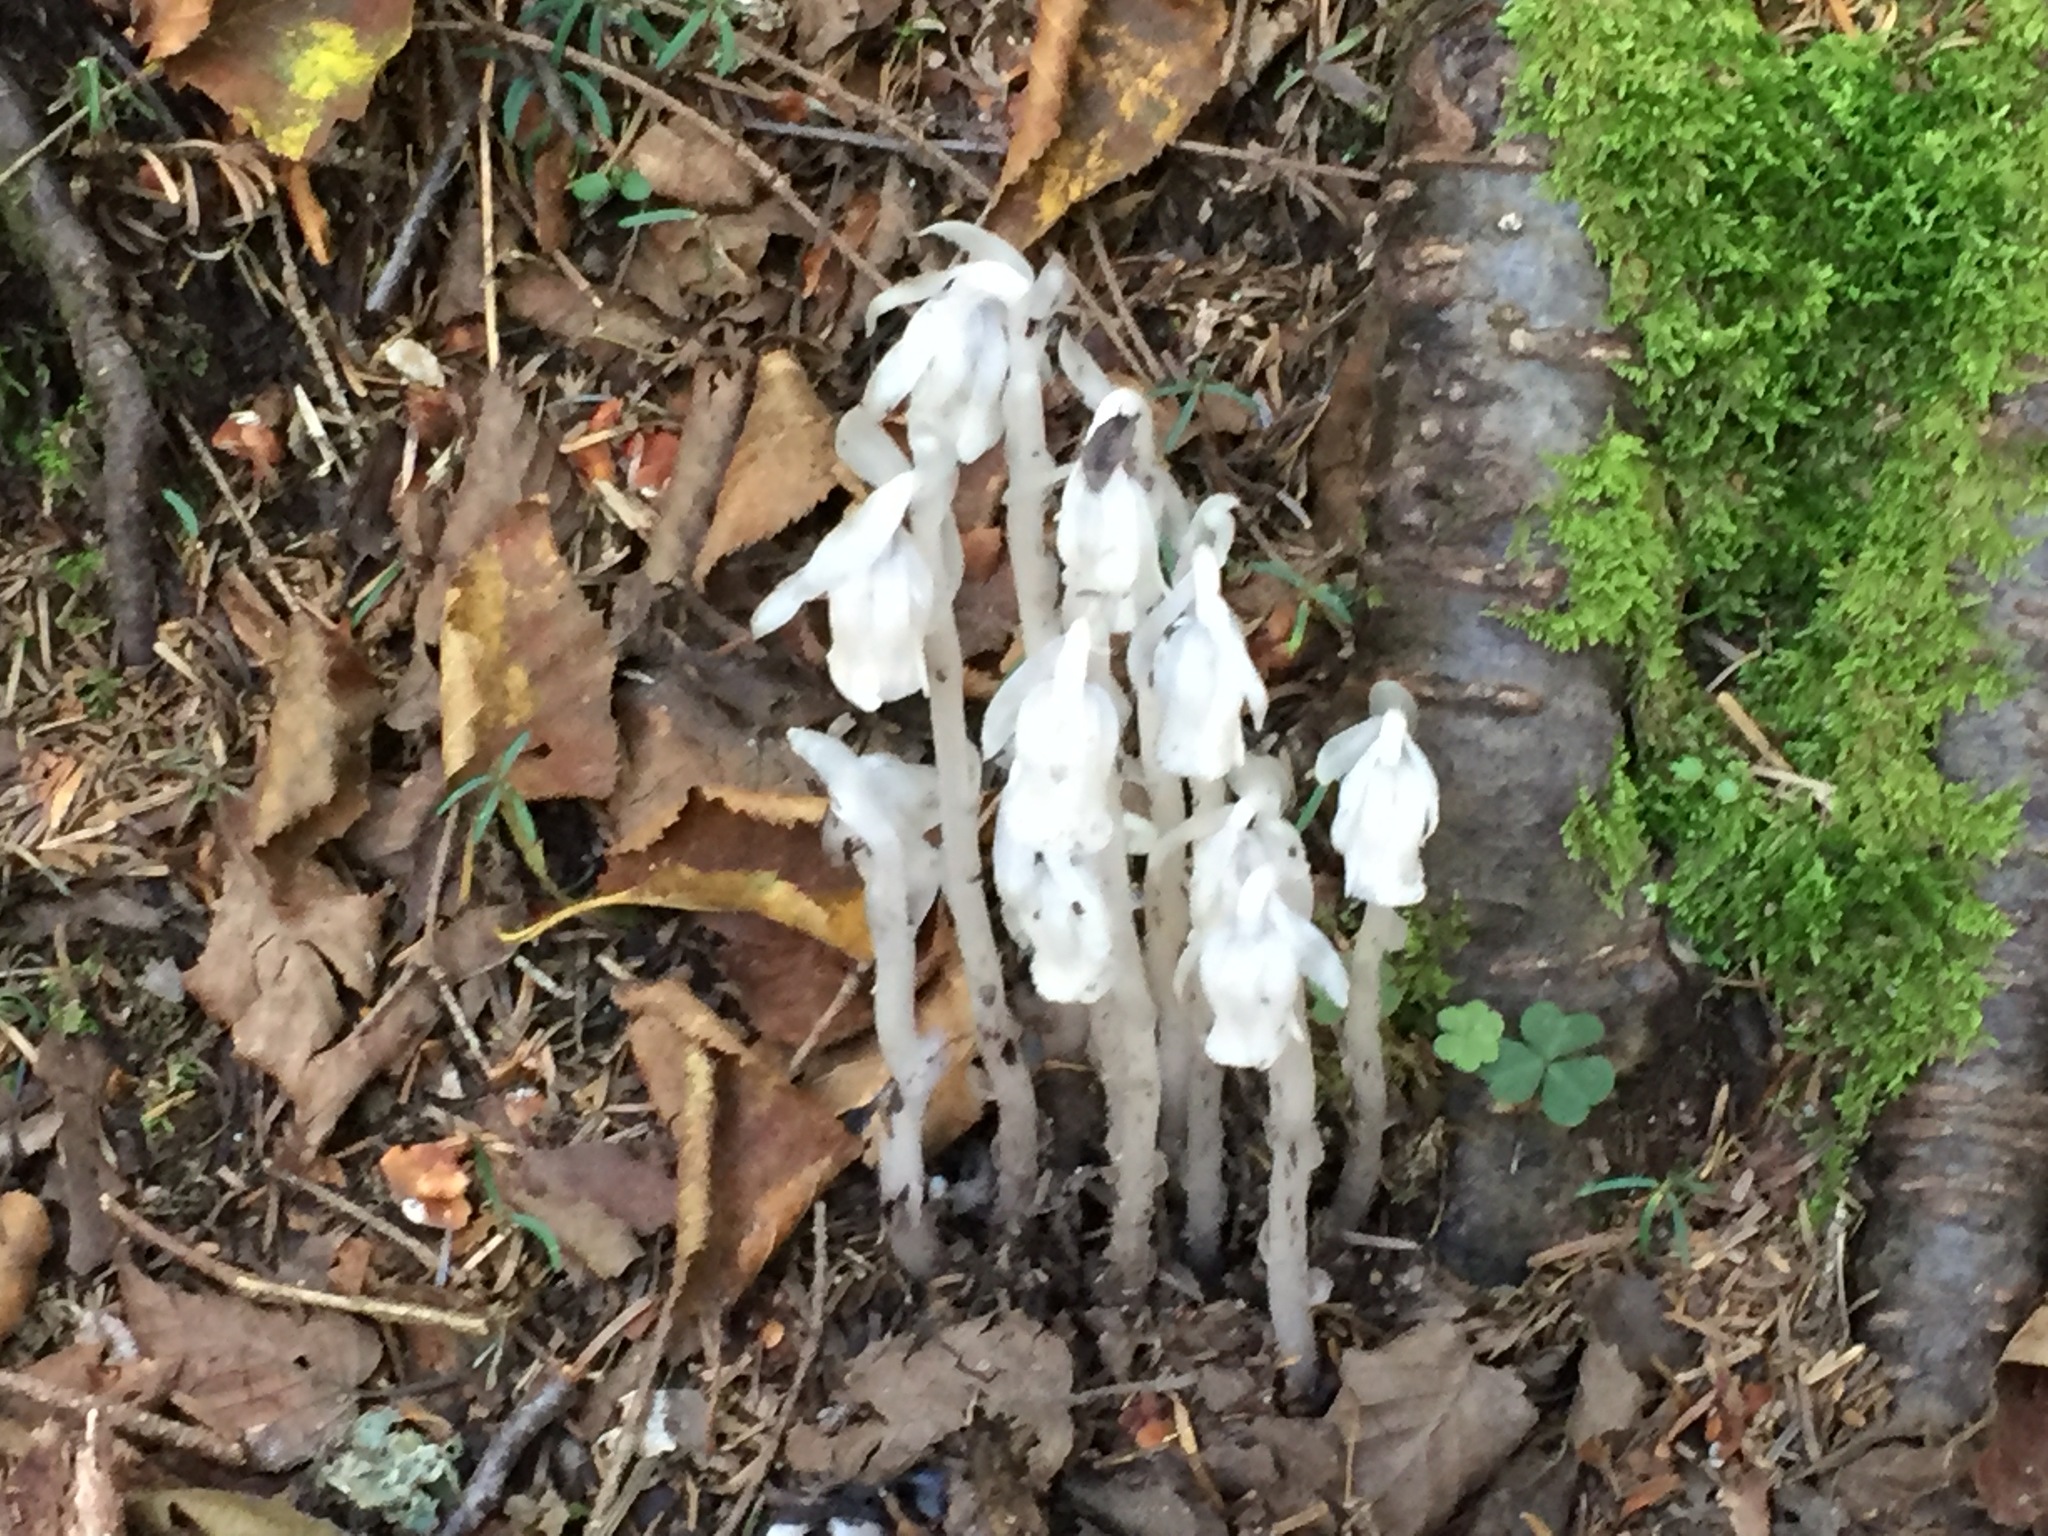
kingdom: Plantae
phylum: Tracheophyta
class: Magnoliopsida
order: Ericales
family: Ericaceae
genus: Monotropa
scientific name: Monotropa uniflora
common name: Convulsion root
